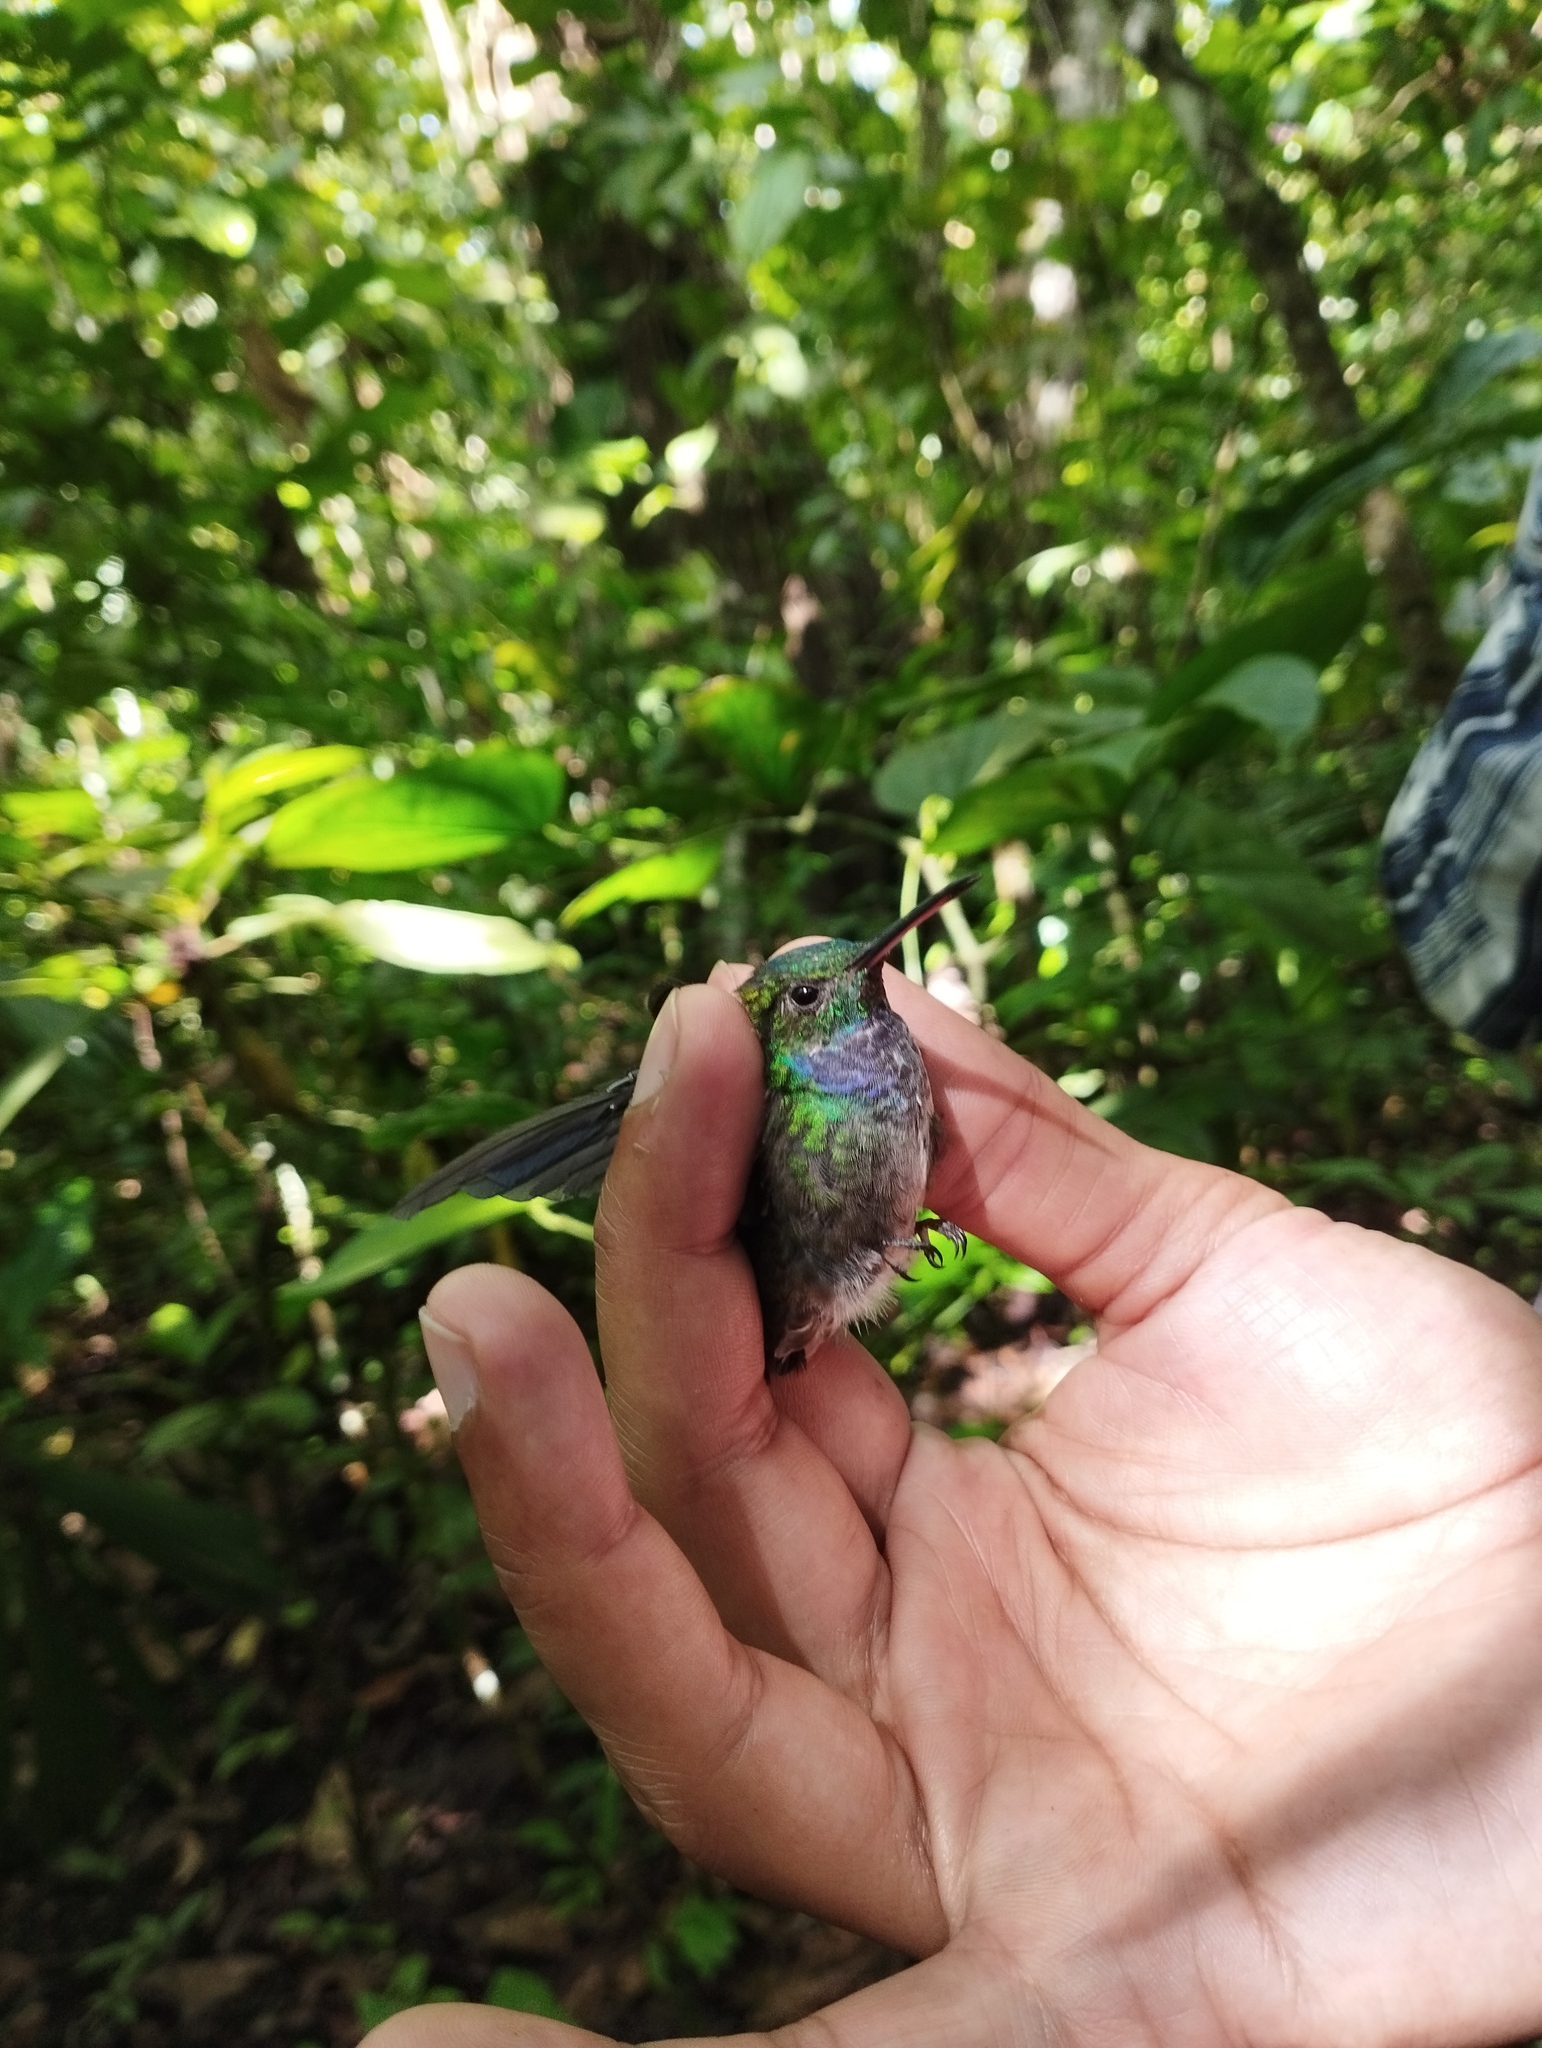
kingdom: Animalia
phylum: Chordata
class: Aves
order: Apodiformes
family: Trochilidae
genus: Polyerata
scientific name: Polyerata amabilis
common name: Blue-chested hummingbird
